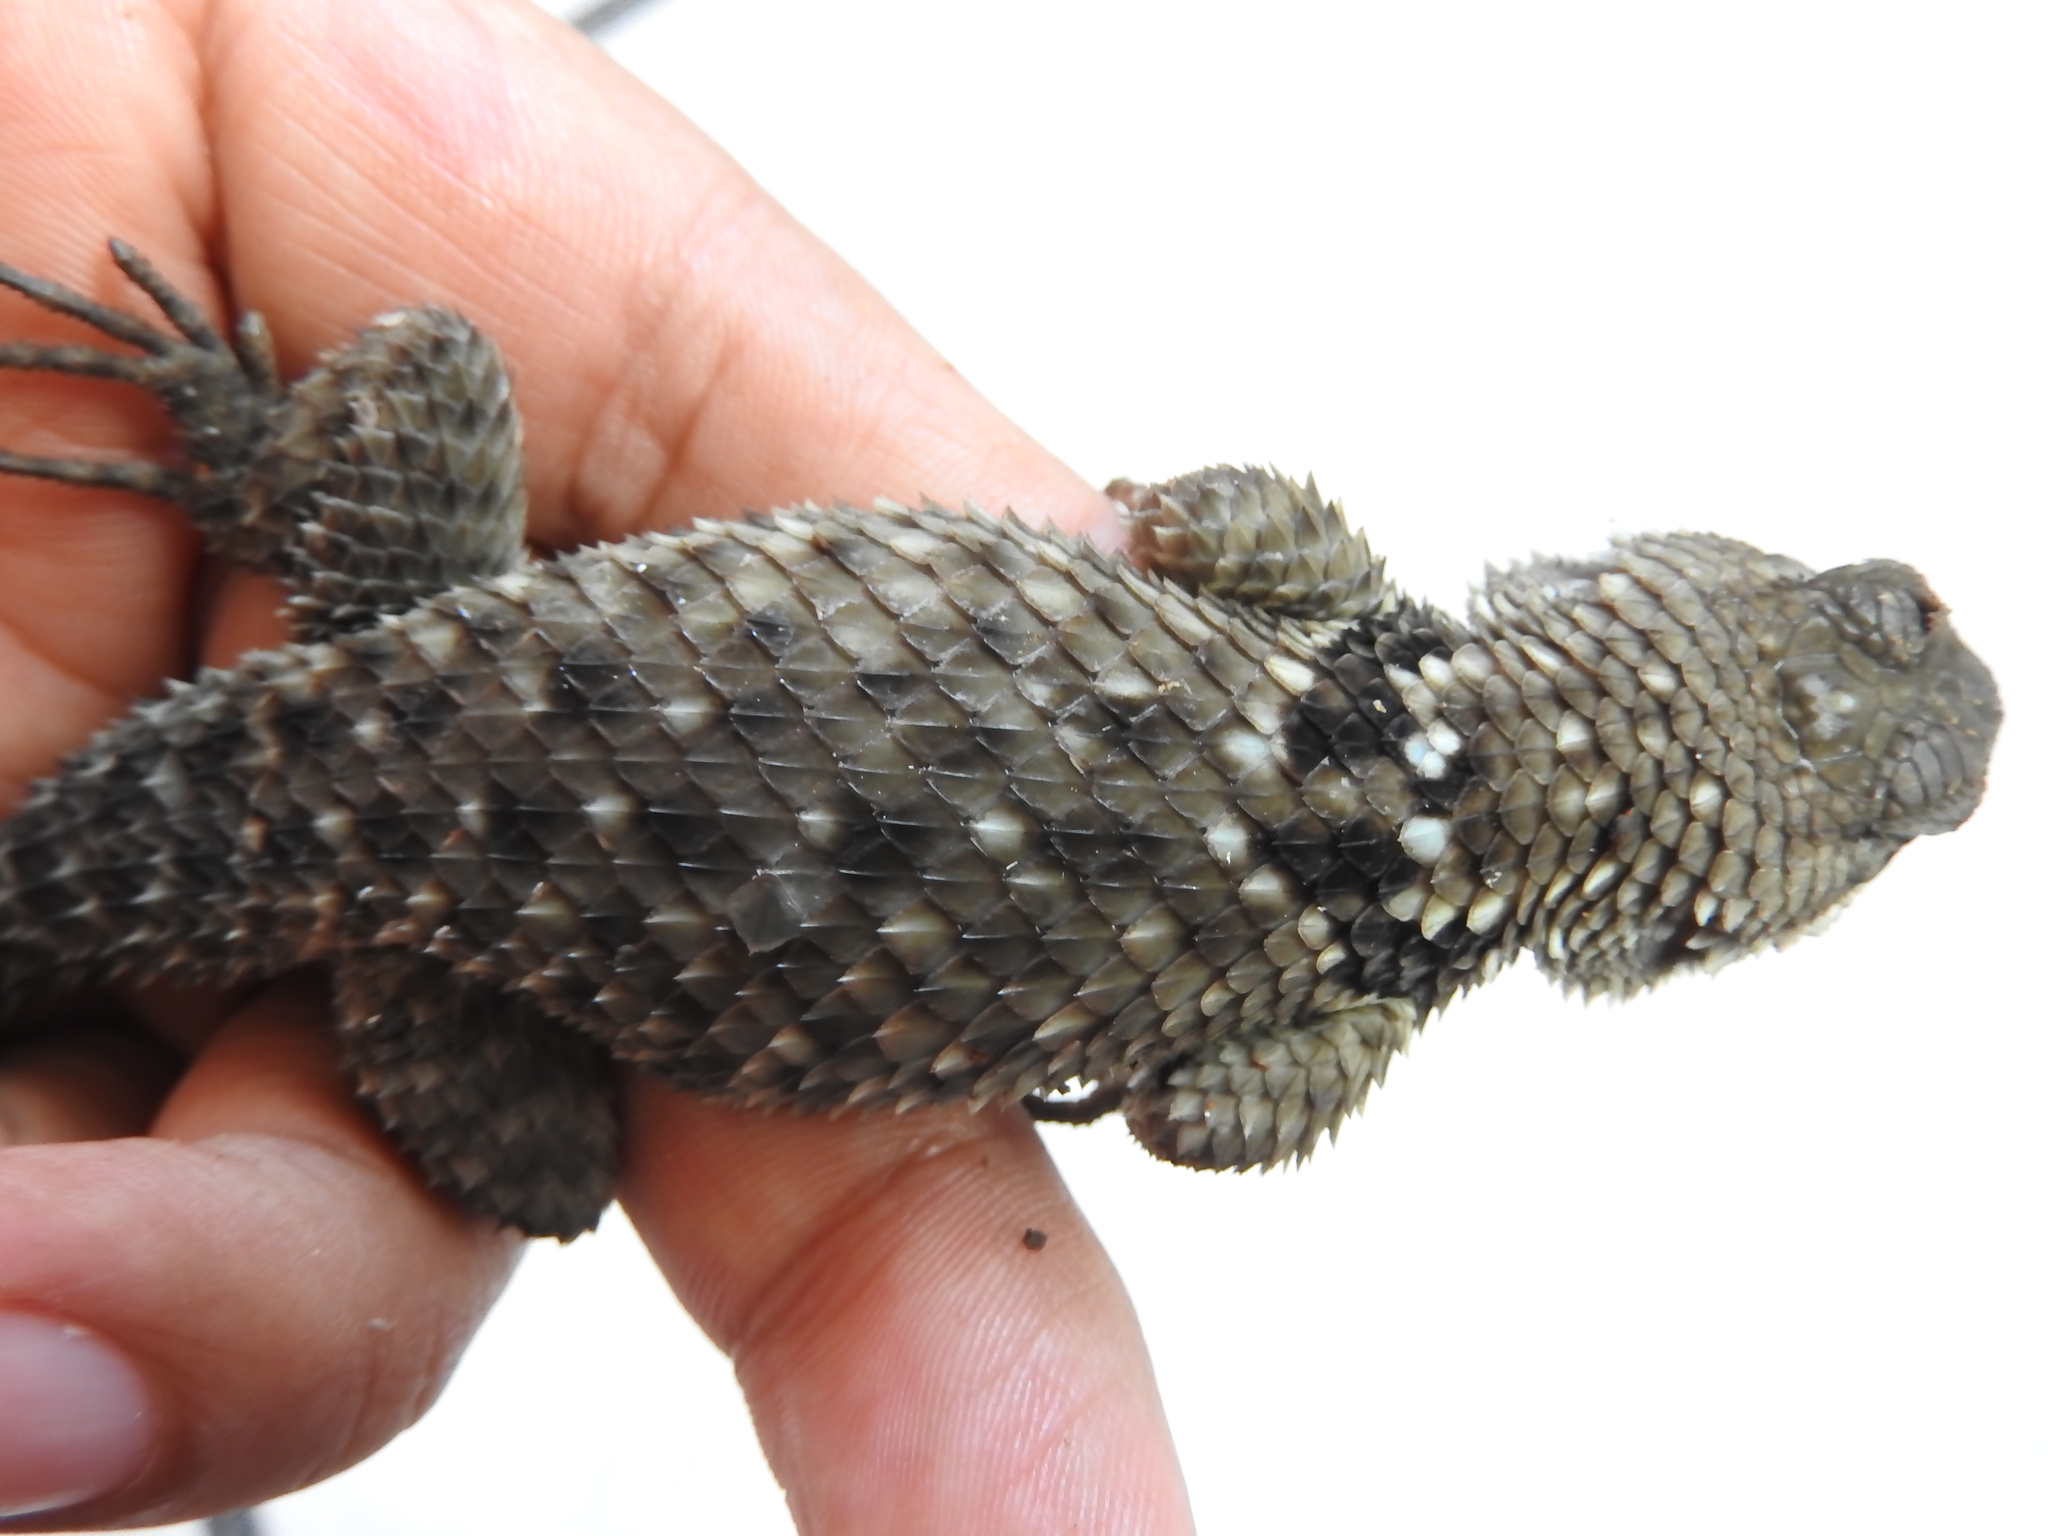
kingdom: Animalia
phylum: Chordata
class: Squamata
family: Phrynosomatidae
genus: Sceloporus
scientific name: Sceloporus torquatus
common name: Central plateau torquate lizard [melanogaster]
